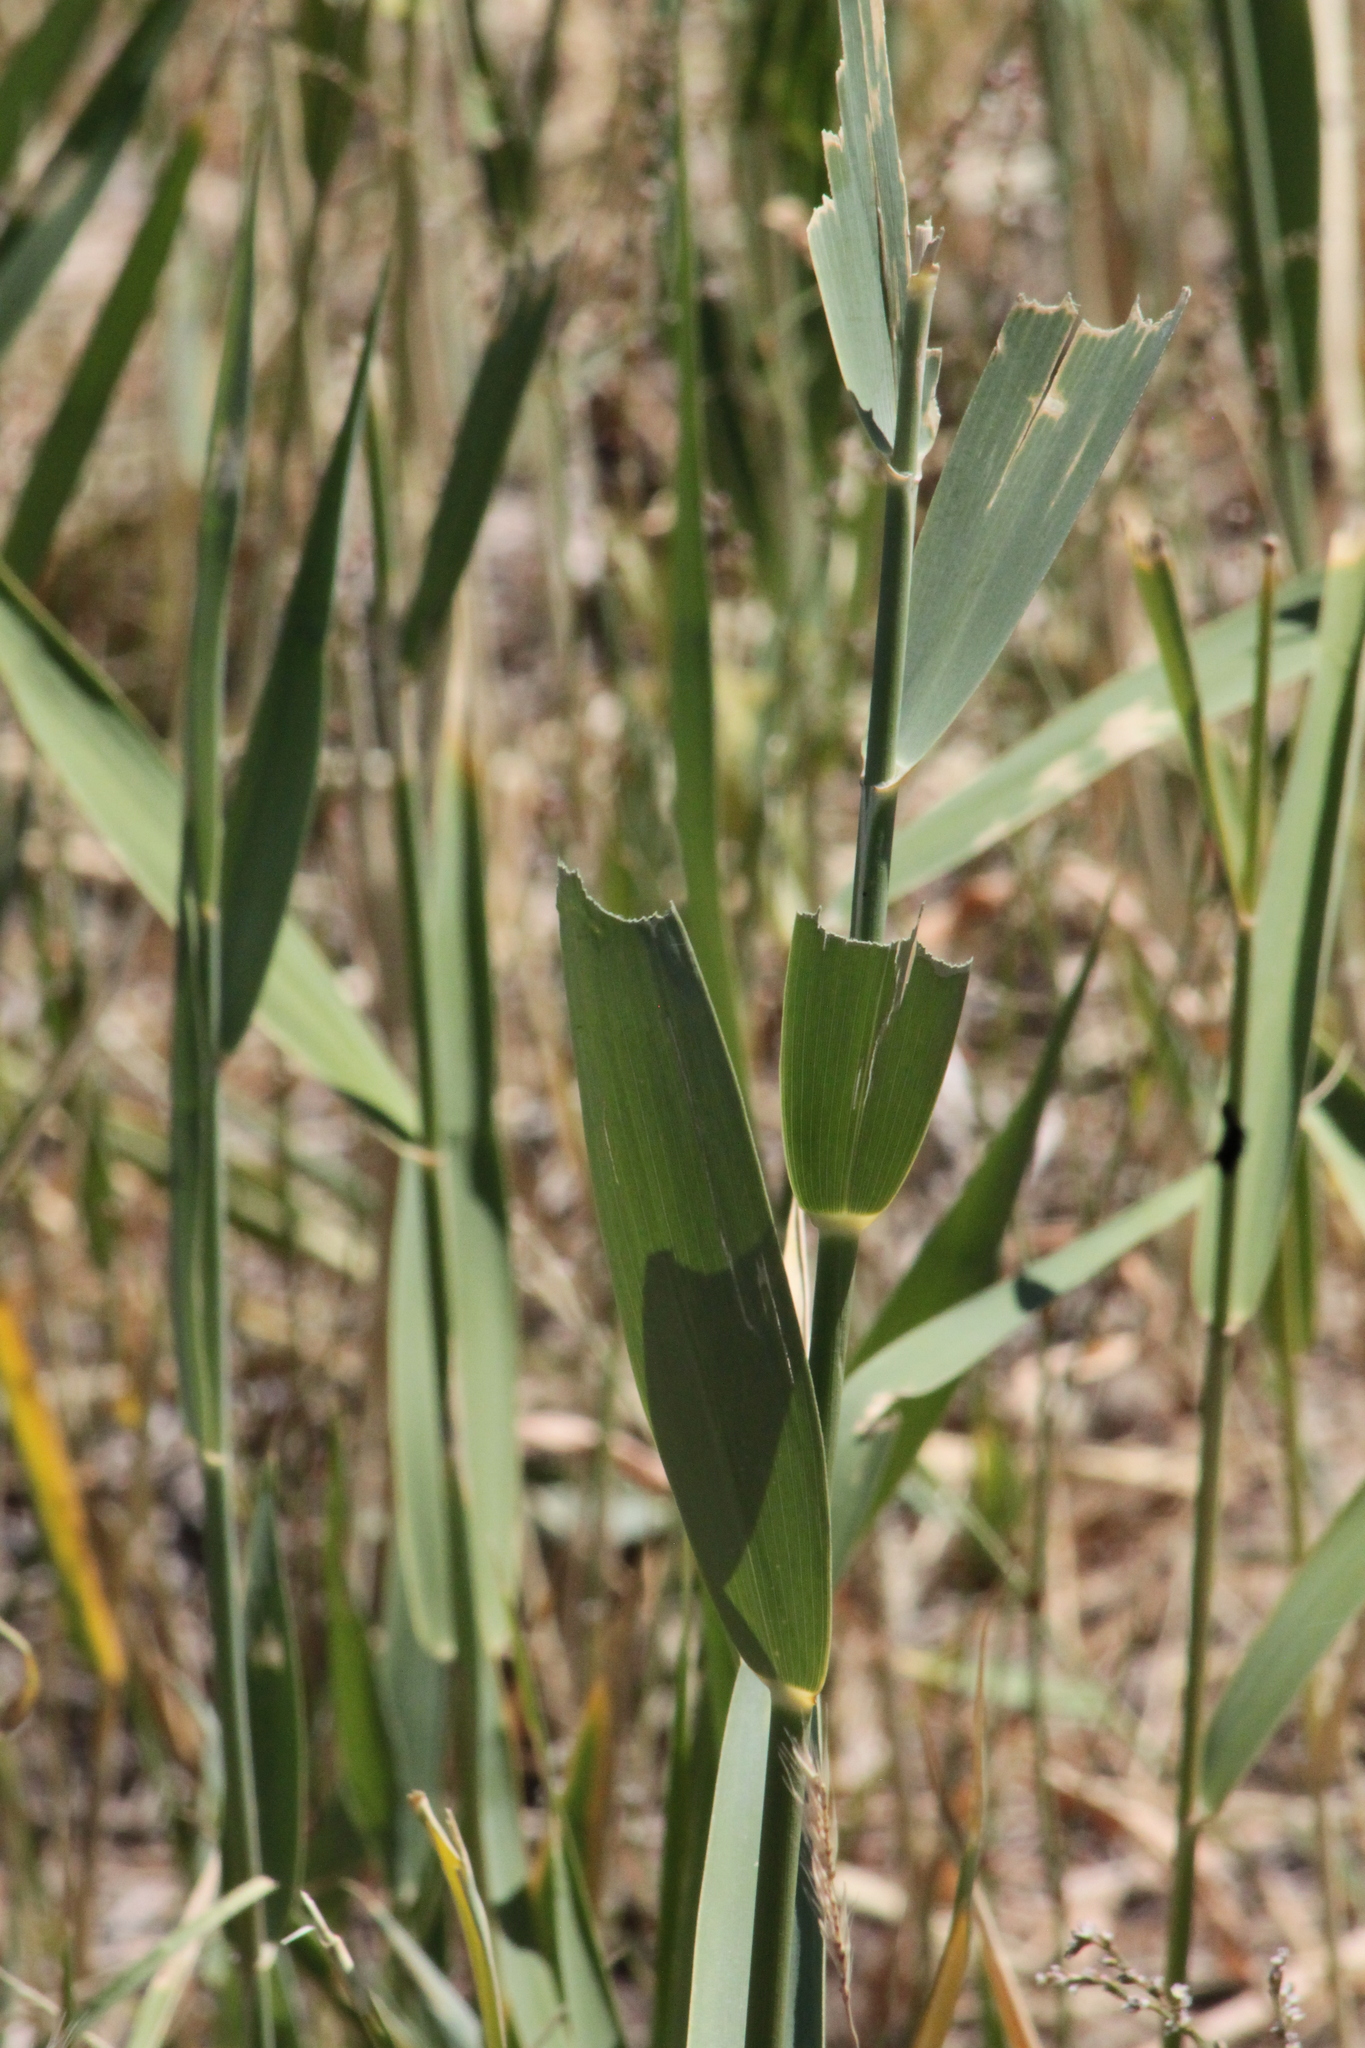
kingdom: Plantae
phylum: Tracheophyta
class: Liliopsida
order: Poales
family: Poaceae
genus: Phragmites
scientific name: Phragmites australis
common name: Common reed
